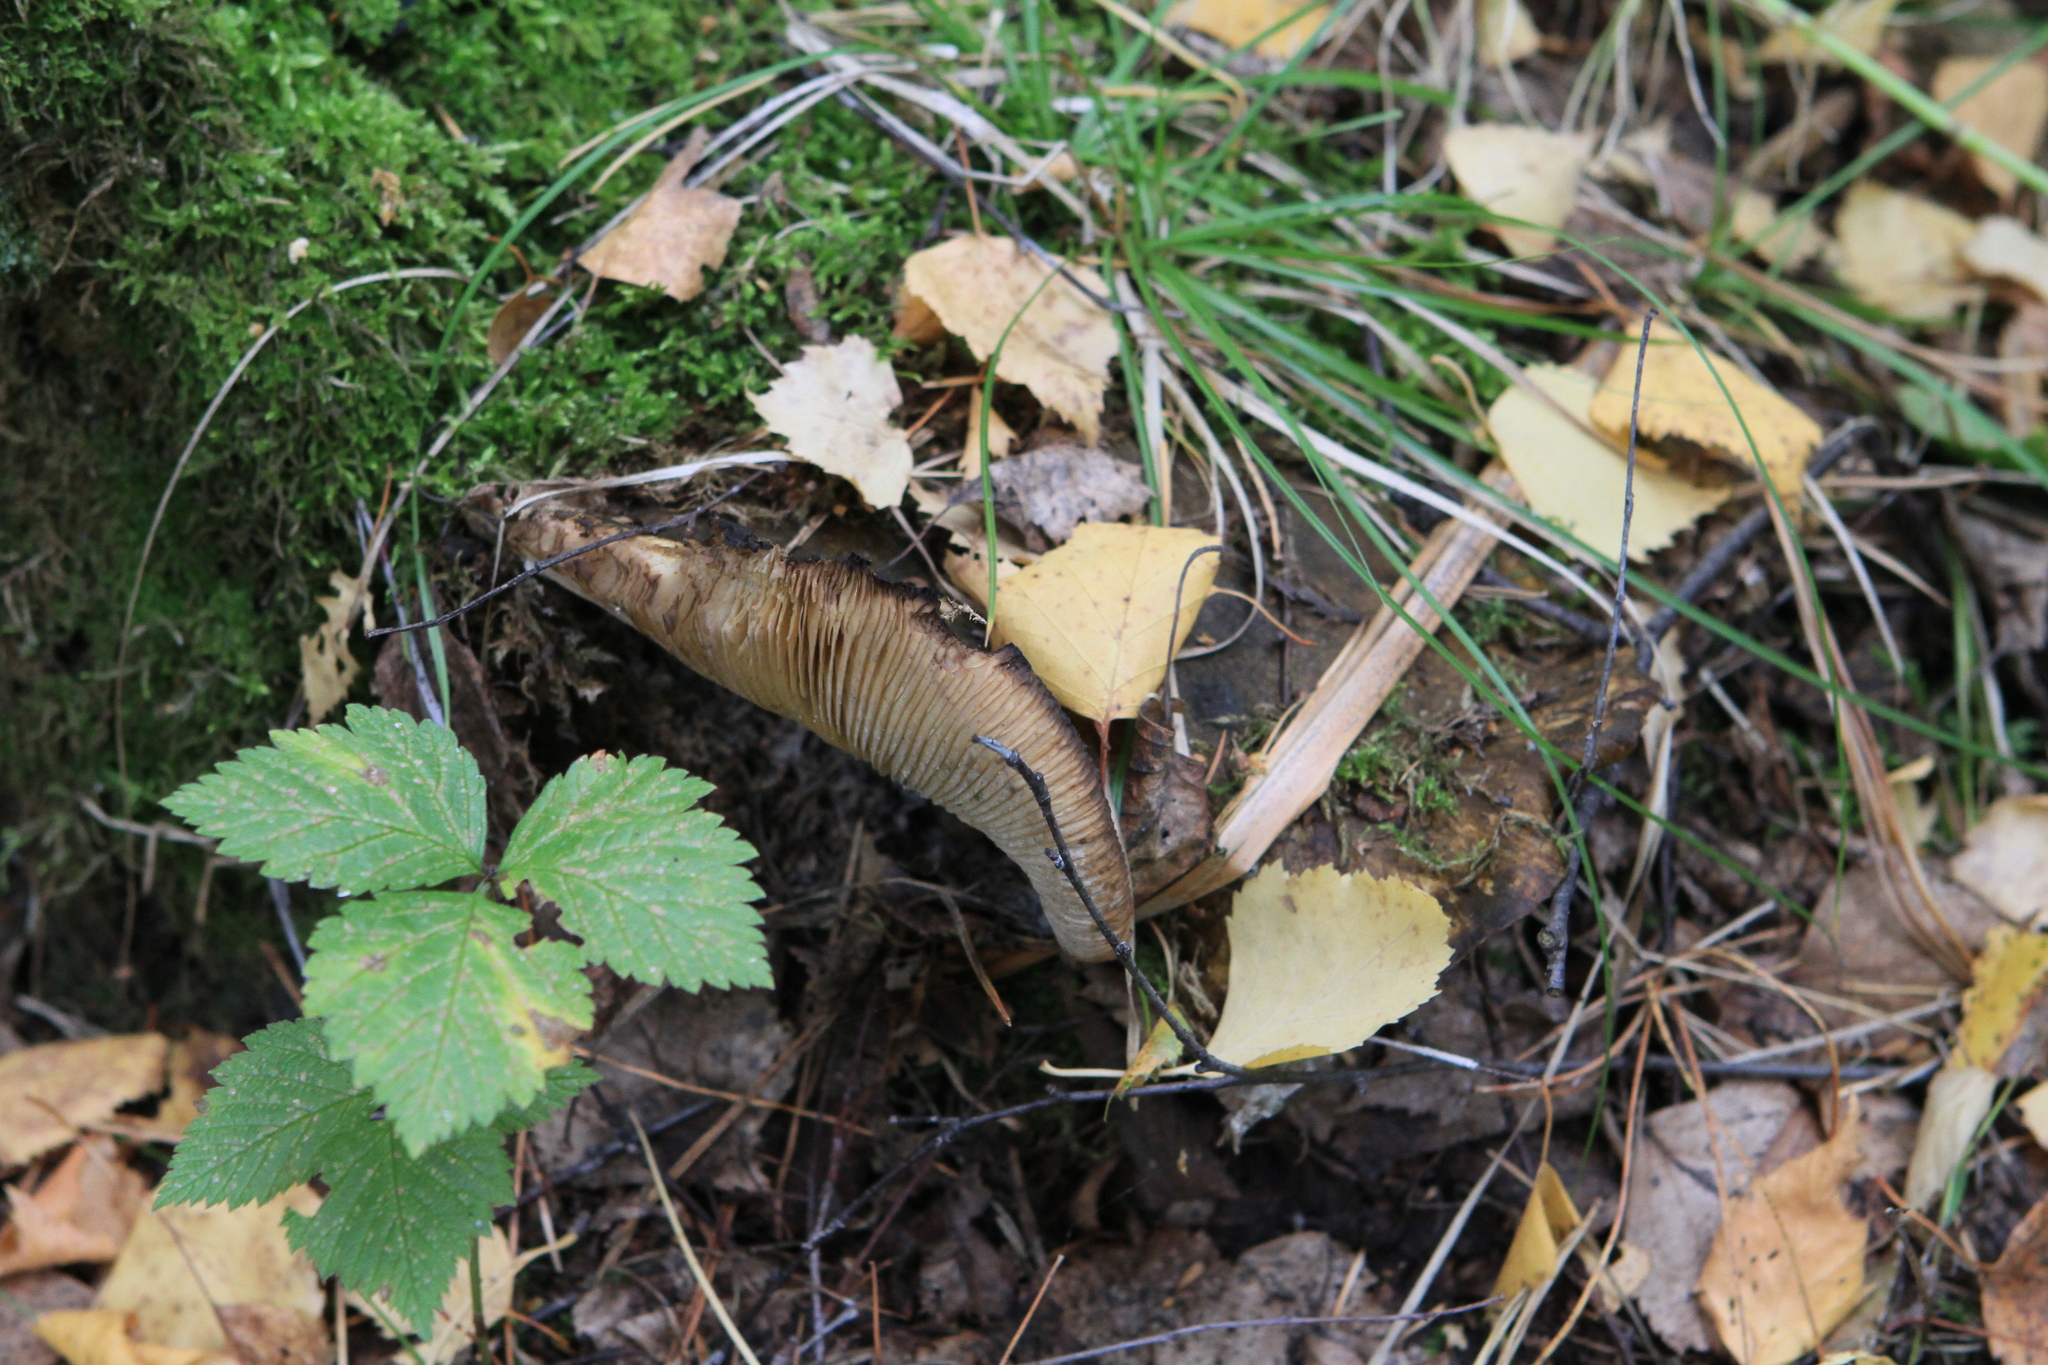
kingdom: Fungi
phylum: Basidiomycota
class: Agaricomycetes
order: Russulales
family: Russulaceae
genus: Lactarius
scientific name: Lactarius turpis
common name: Ugly milk-cap
